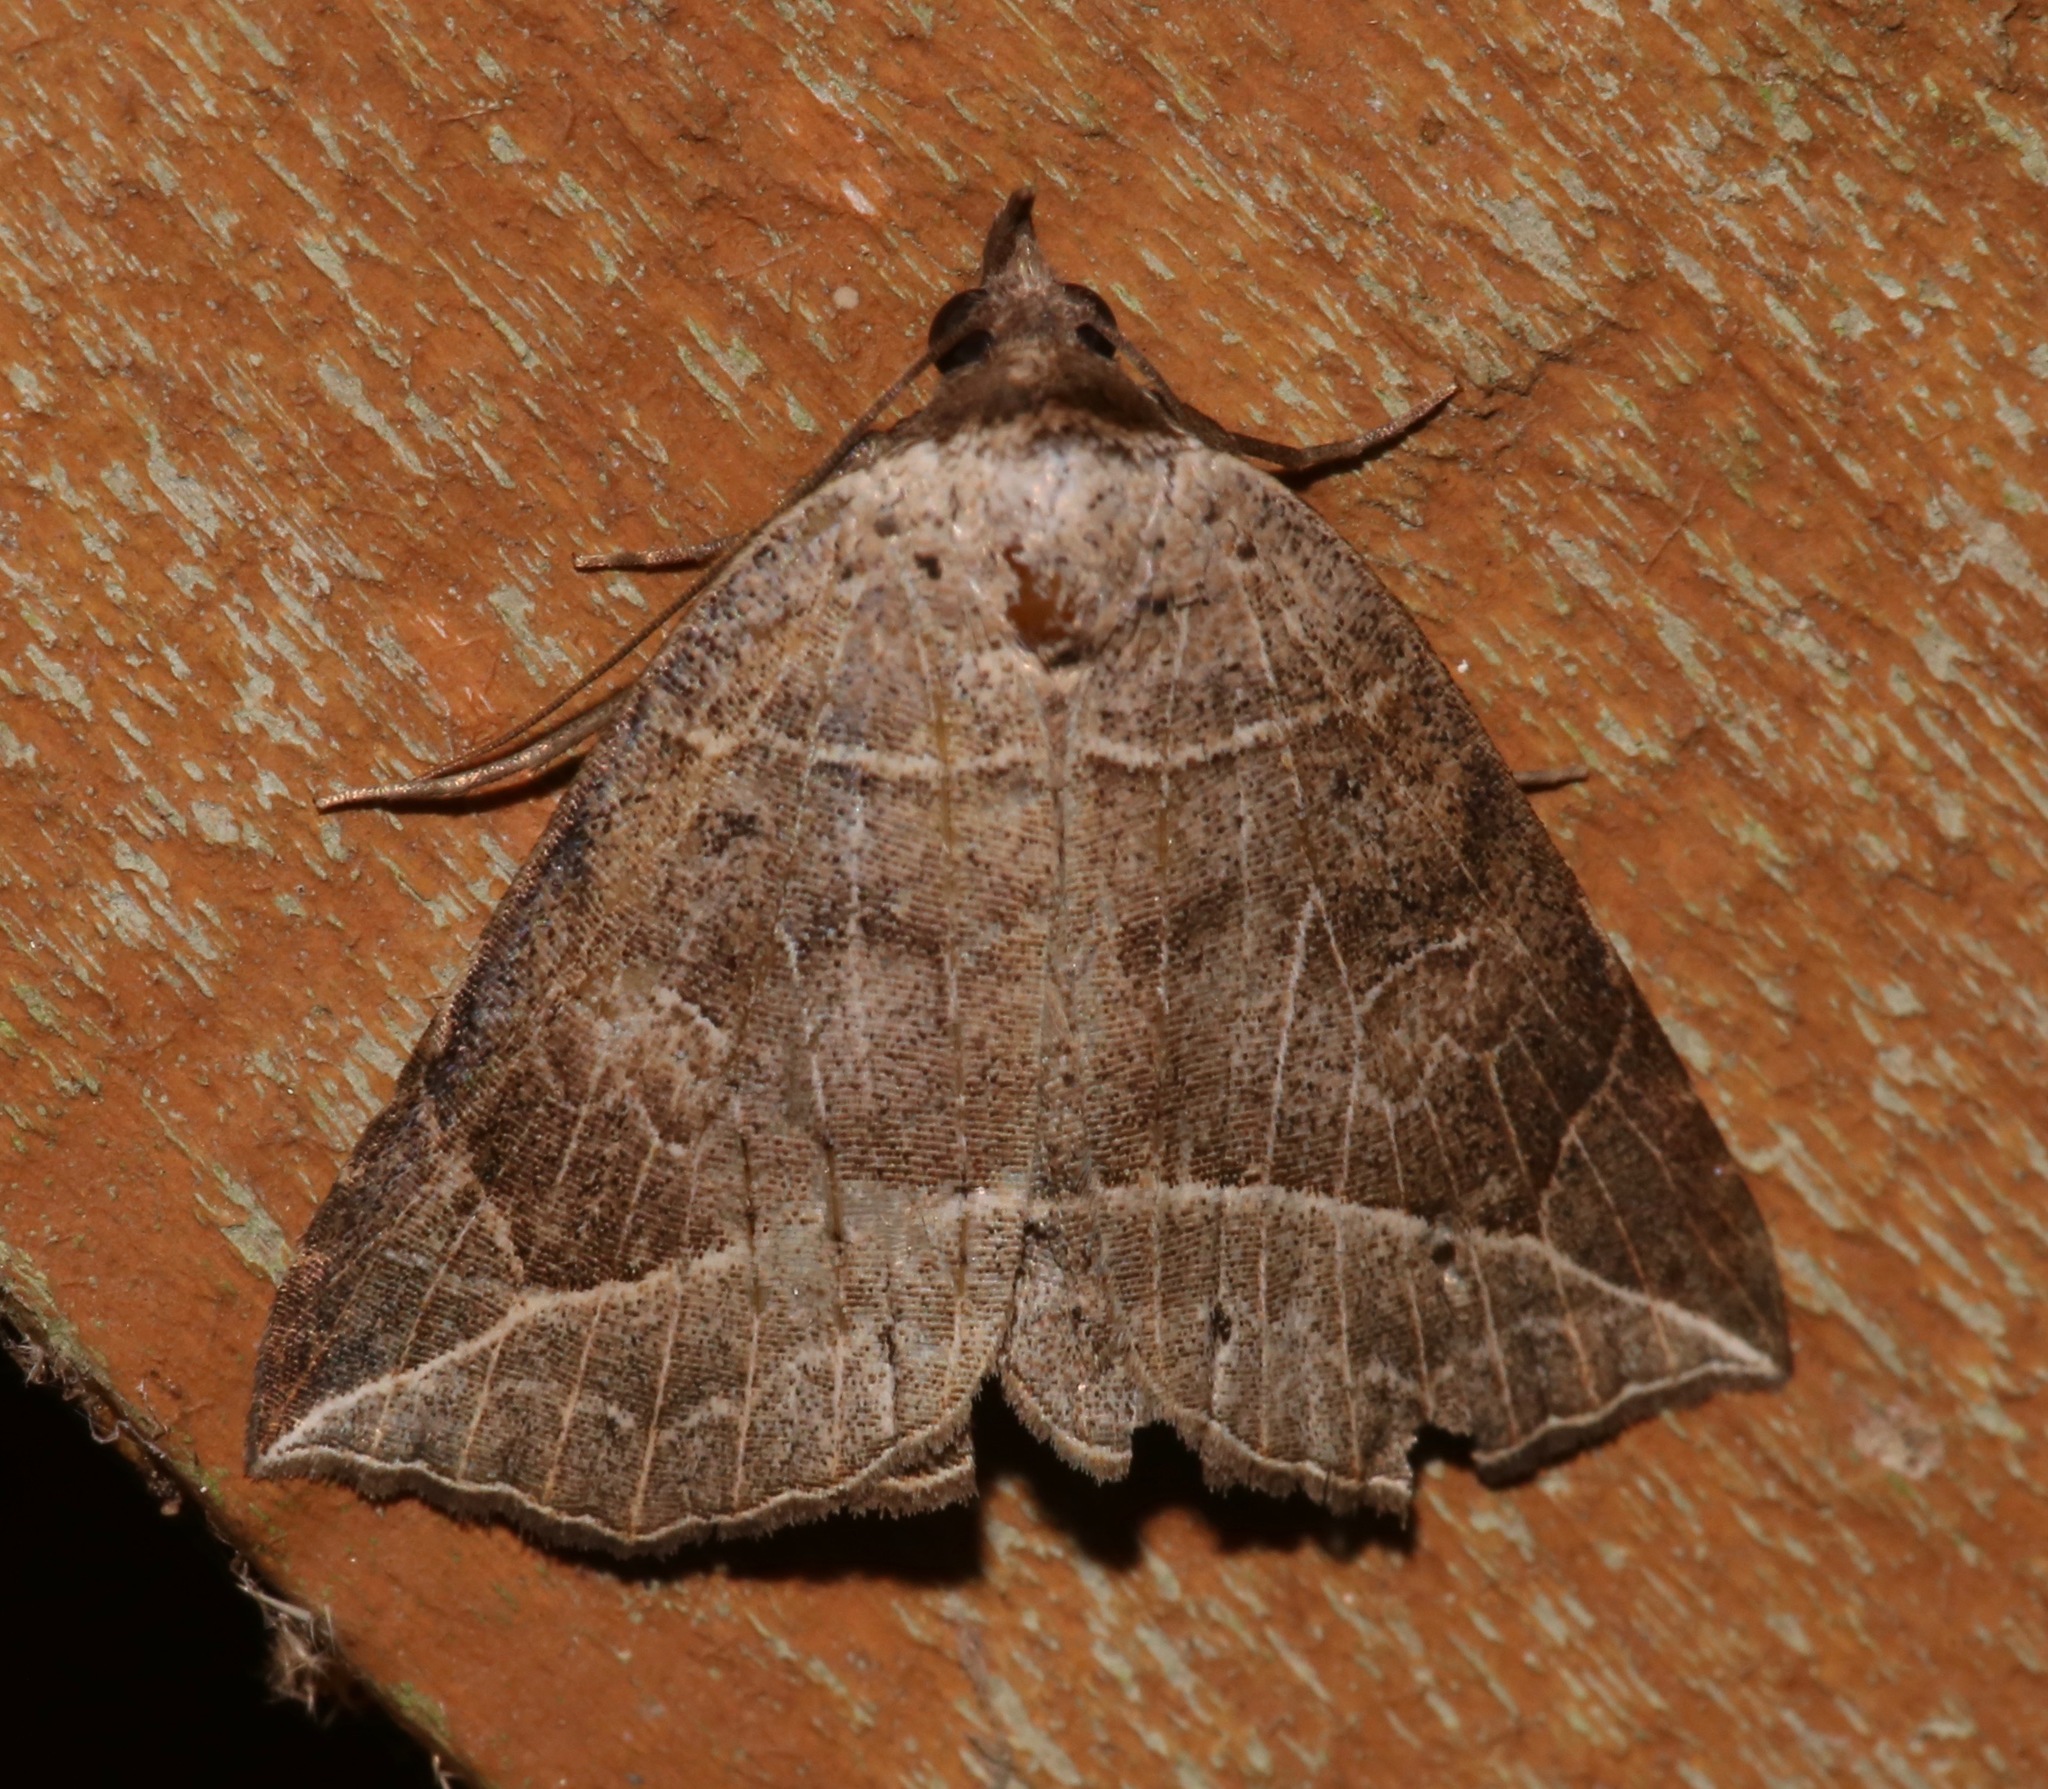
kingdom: Animalia
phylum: Arthropoda
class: Insecta
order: Lepidoptera
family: Erebidae
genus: Isogona
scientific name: Isogona tenuis
